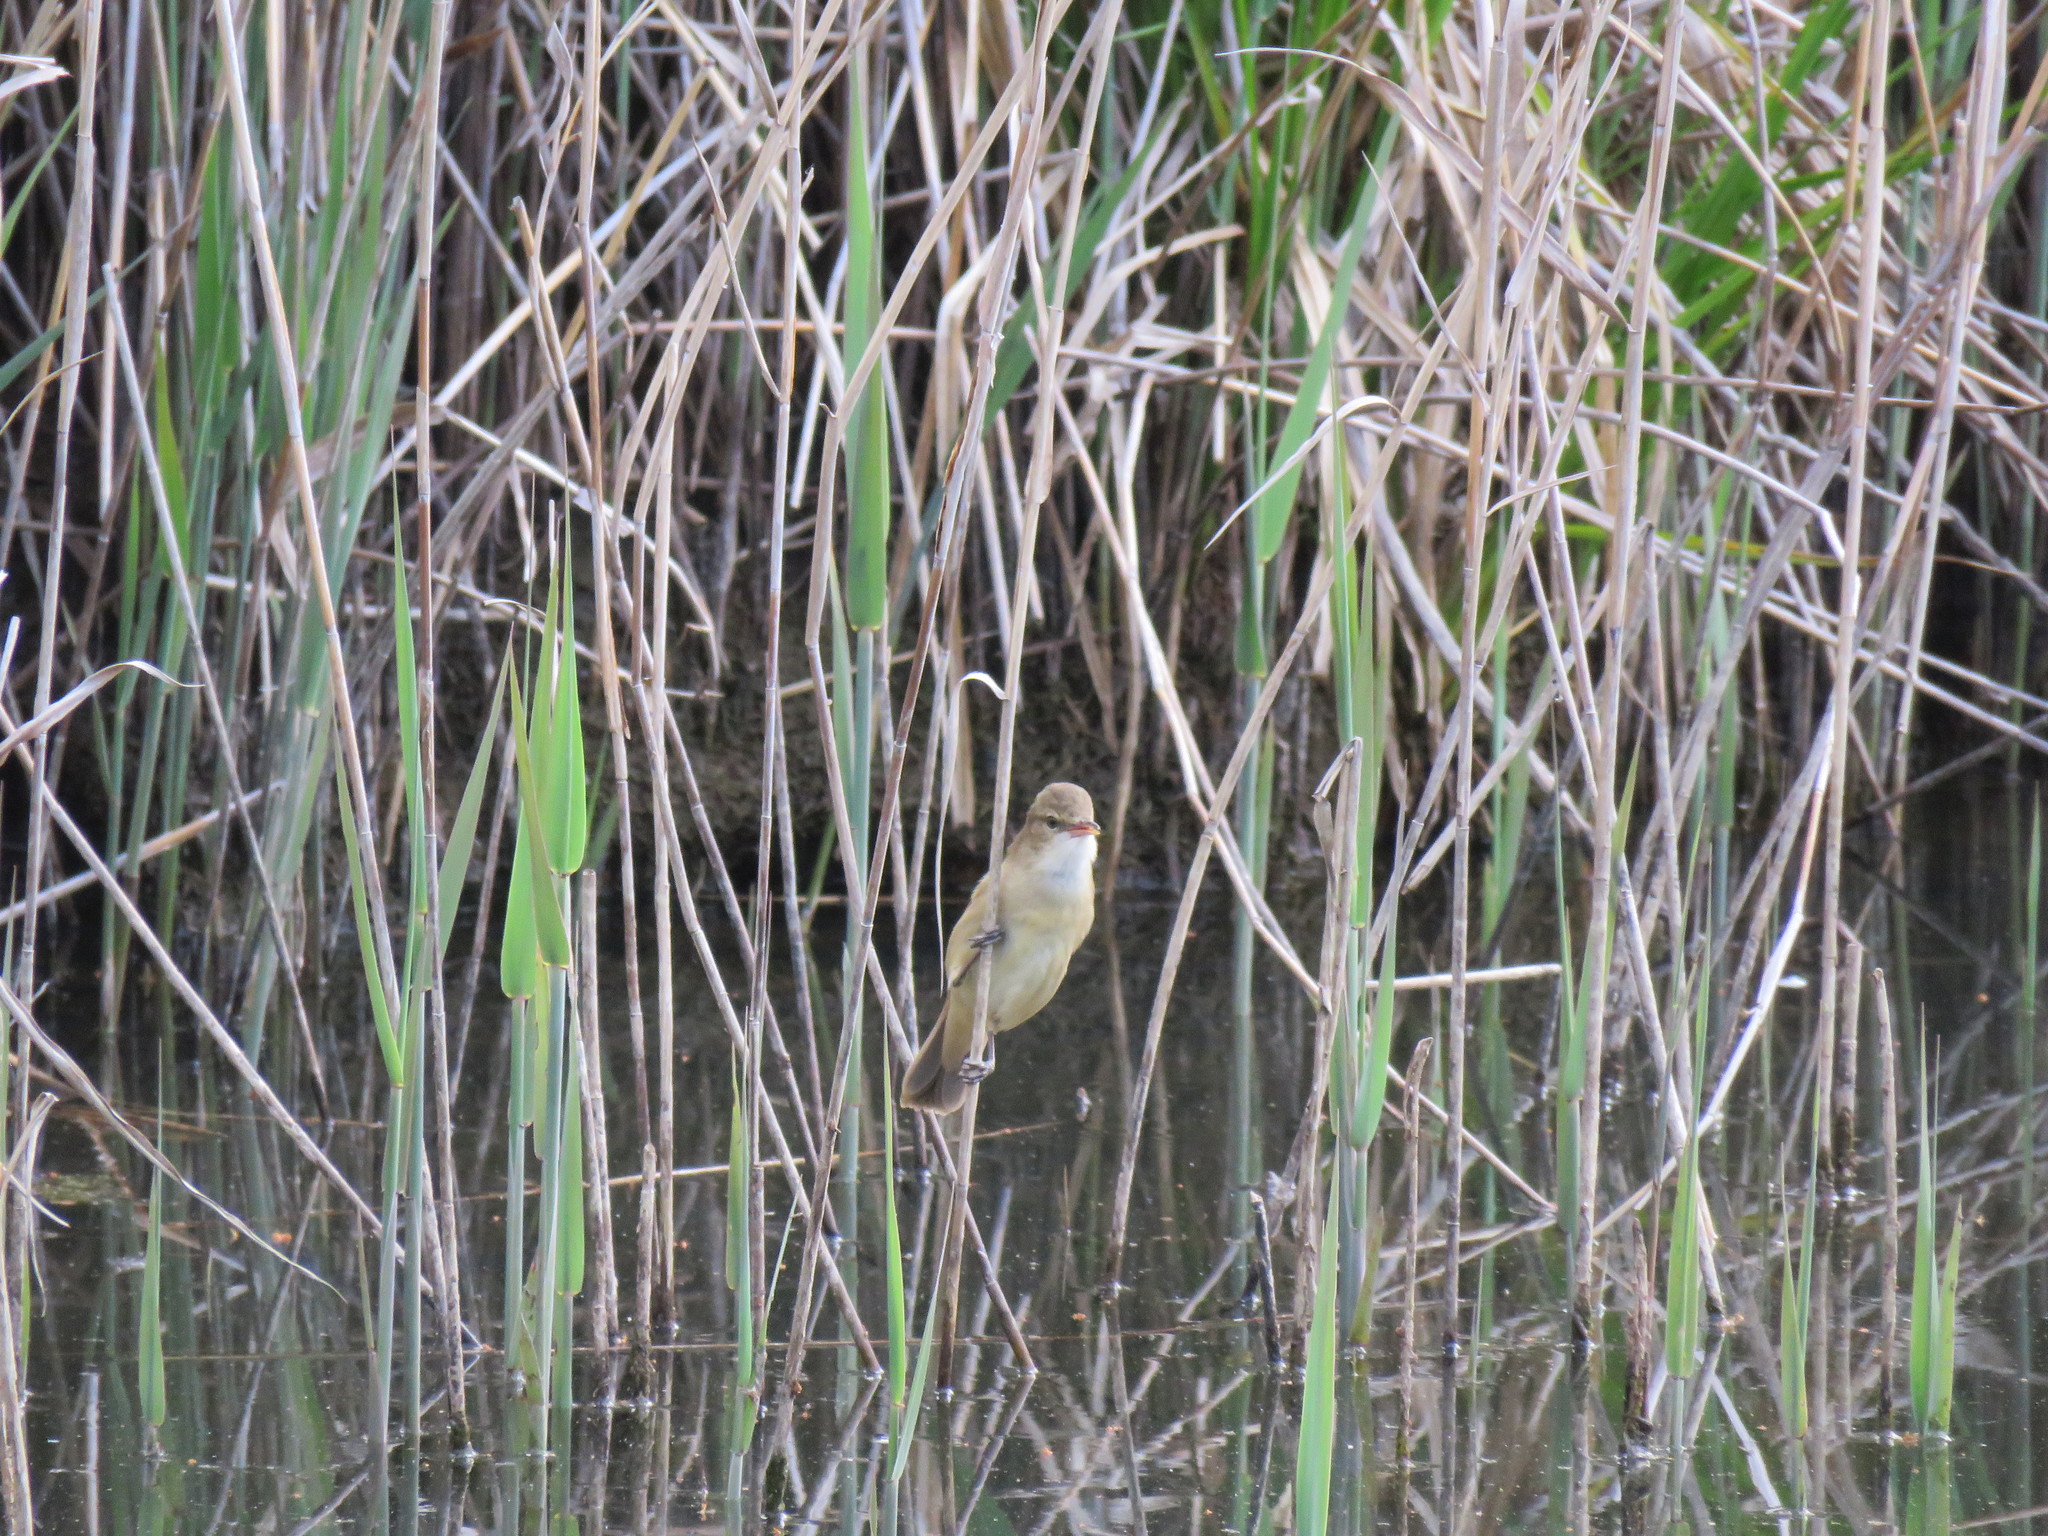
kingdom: Animalia
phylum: Chordata
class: Aves
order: Passeriformes
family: Acrocephalidae
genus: Acrocephalus
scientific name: Acrocephalus australis
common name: Australian reed warbler
